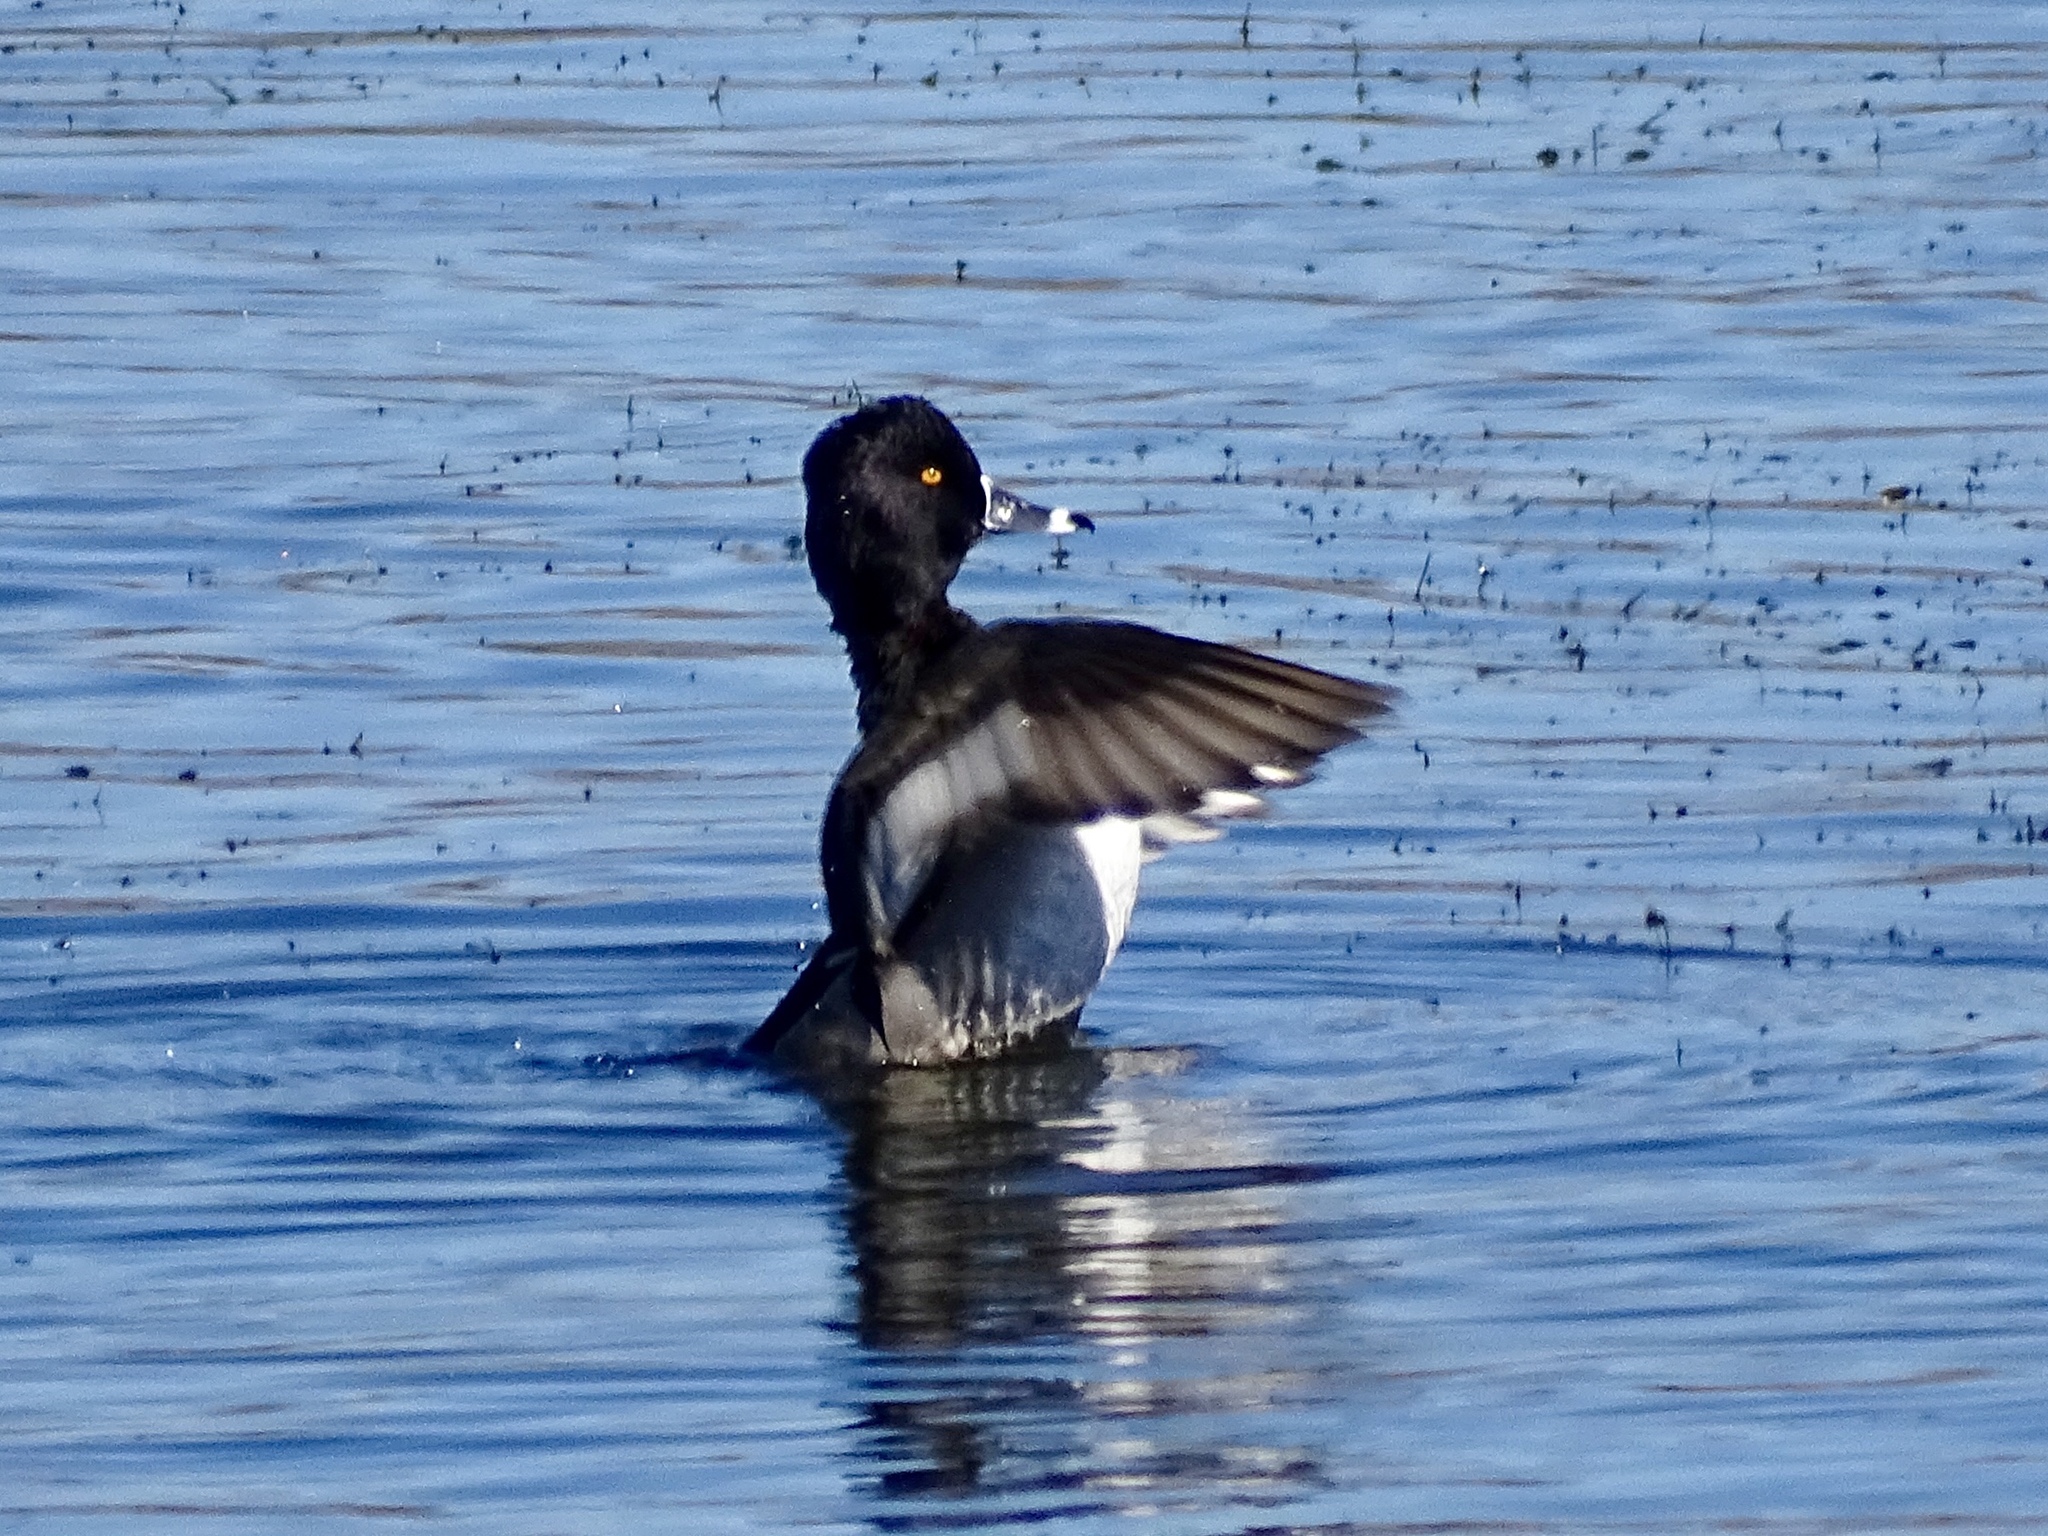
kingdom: Animalia
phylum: Chordata
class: Aves
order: Anseriformes
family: Anatidae
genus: Aythya
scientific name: Aythya collaris
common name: Ring-necked duck
